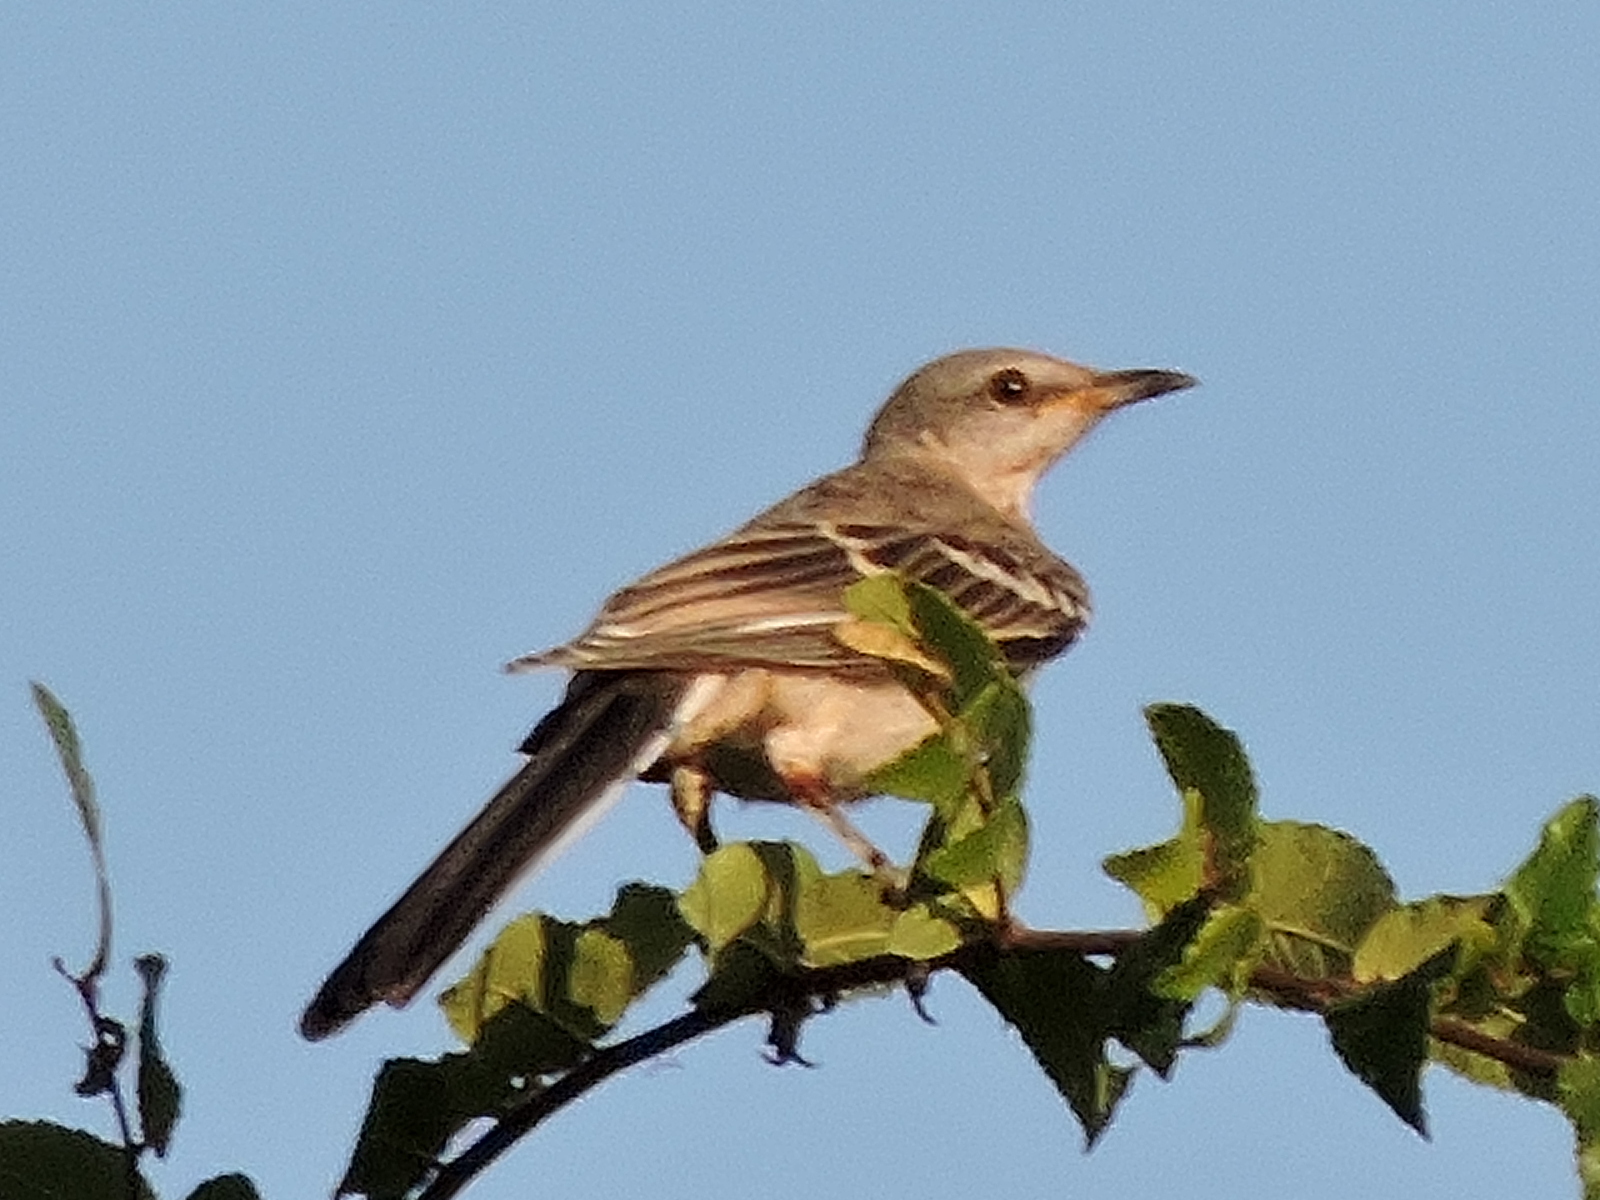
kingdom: Animalia
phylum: Chordata
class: Aves
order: Passeriformes
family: Mimidae
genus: Mimus
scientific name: Mimus polyglottos
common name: Northern mockingbird
